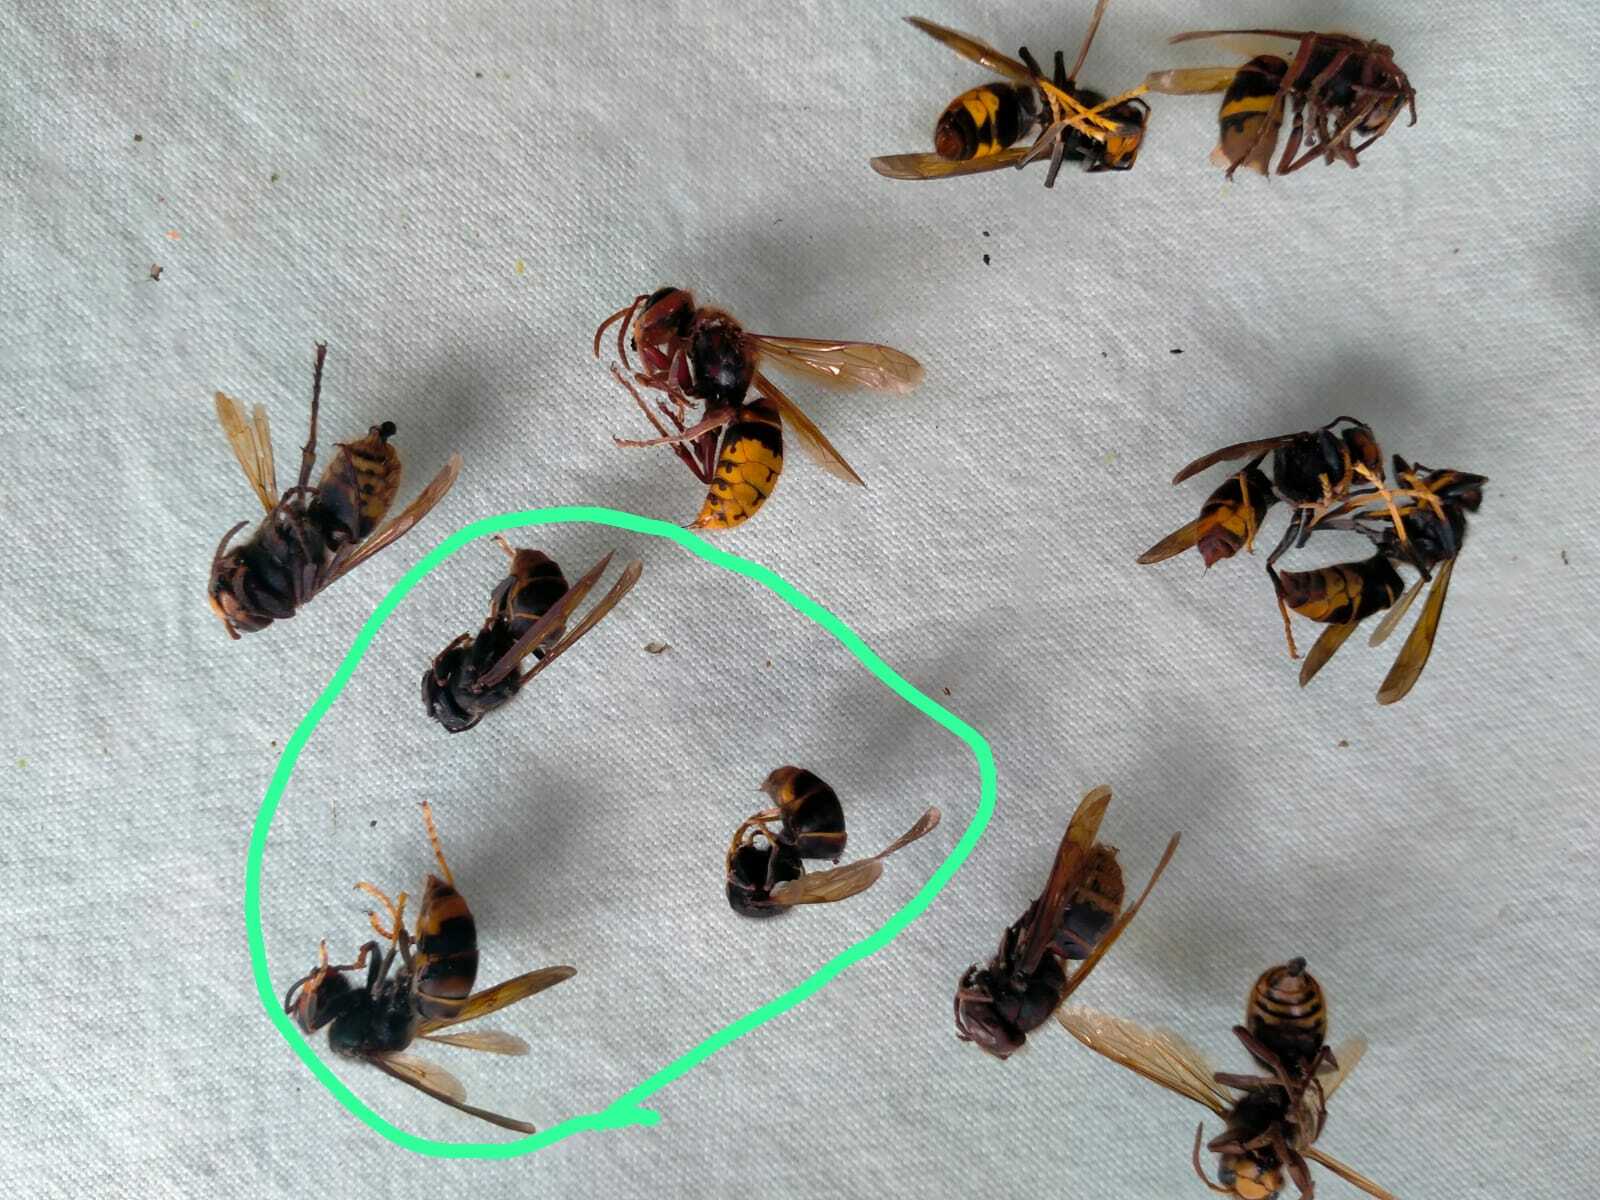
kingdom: Animalia
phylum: Arthropoda
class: Insecta
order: Hymenoptera
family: Vespidae
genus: Vespa
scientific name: Vespa velutina
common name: Asian hornet
